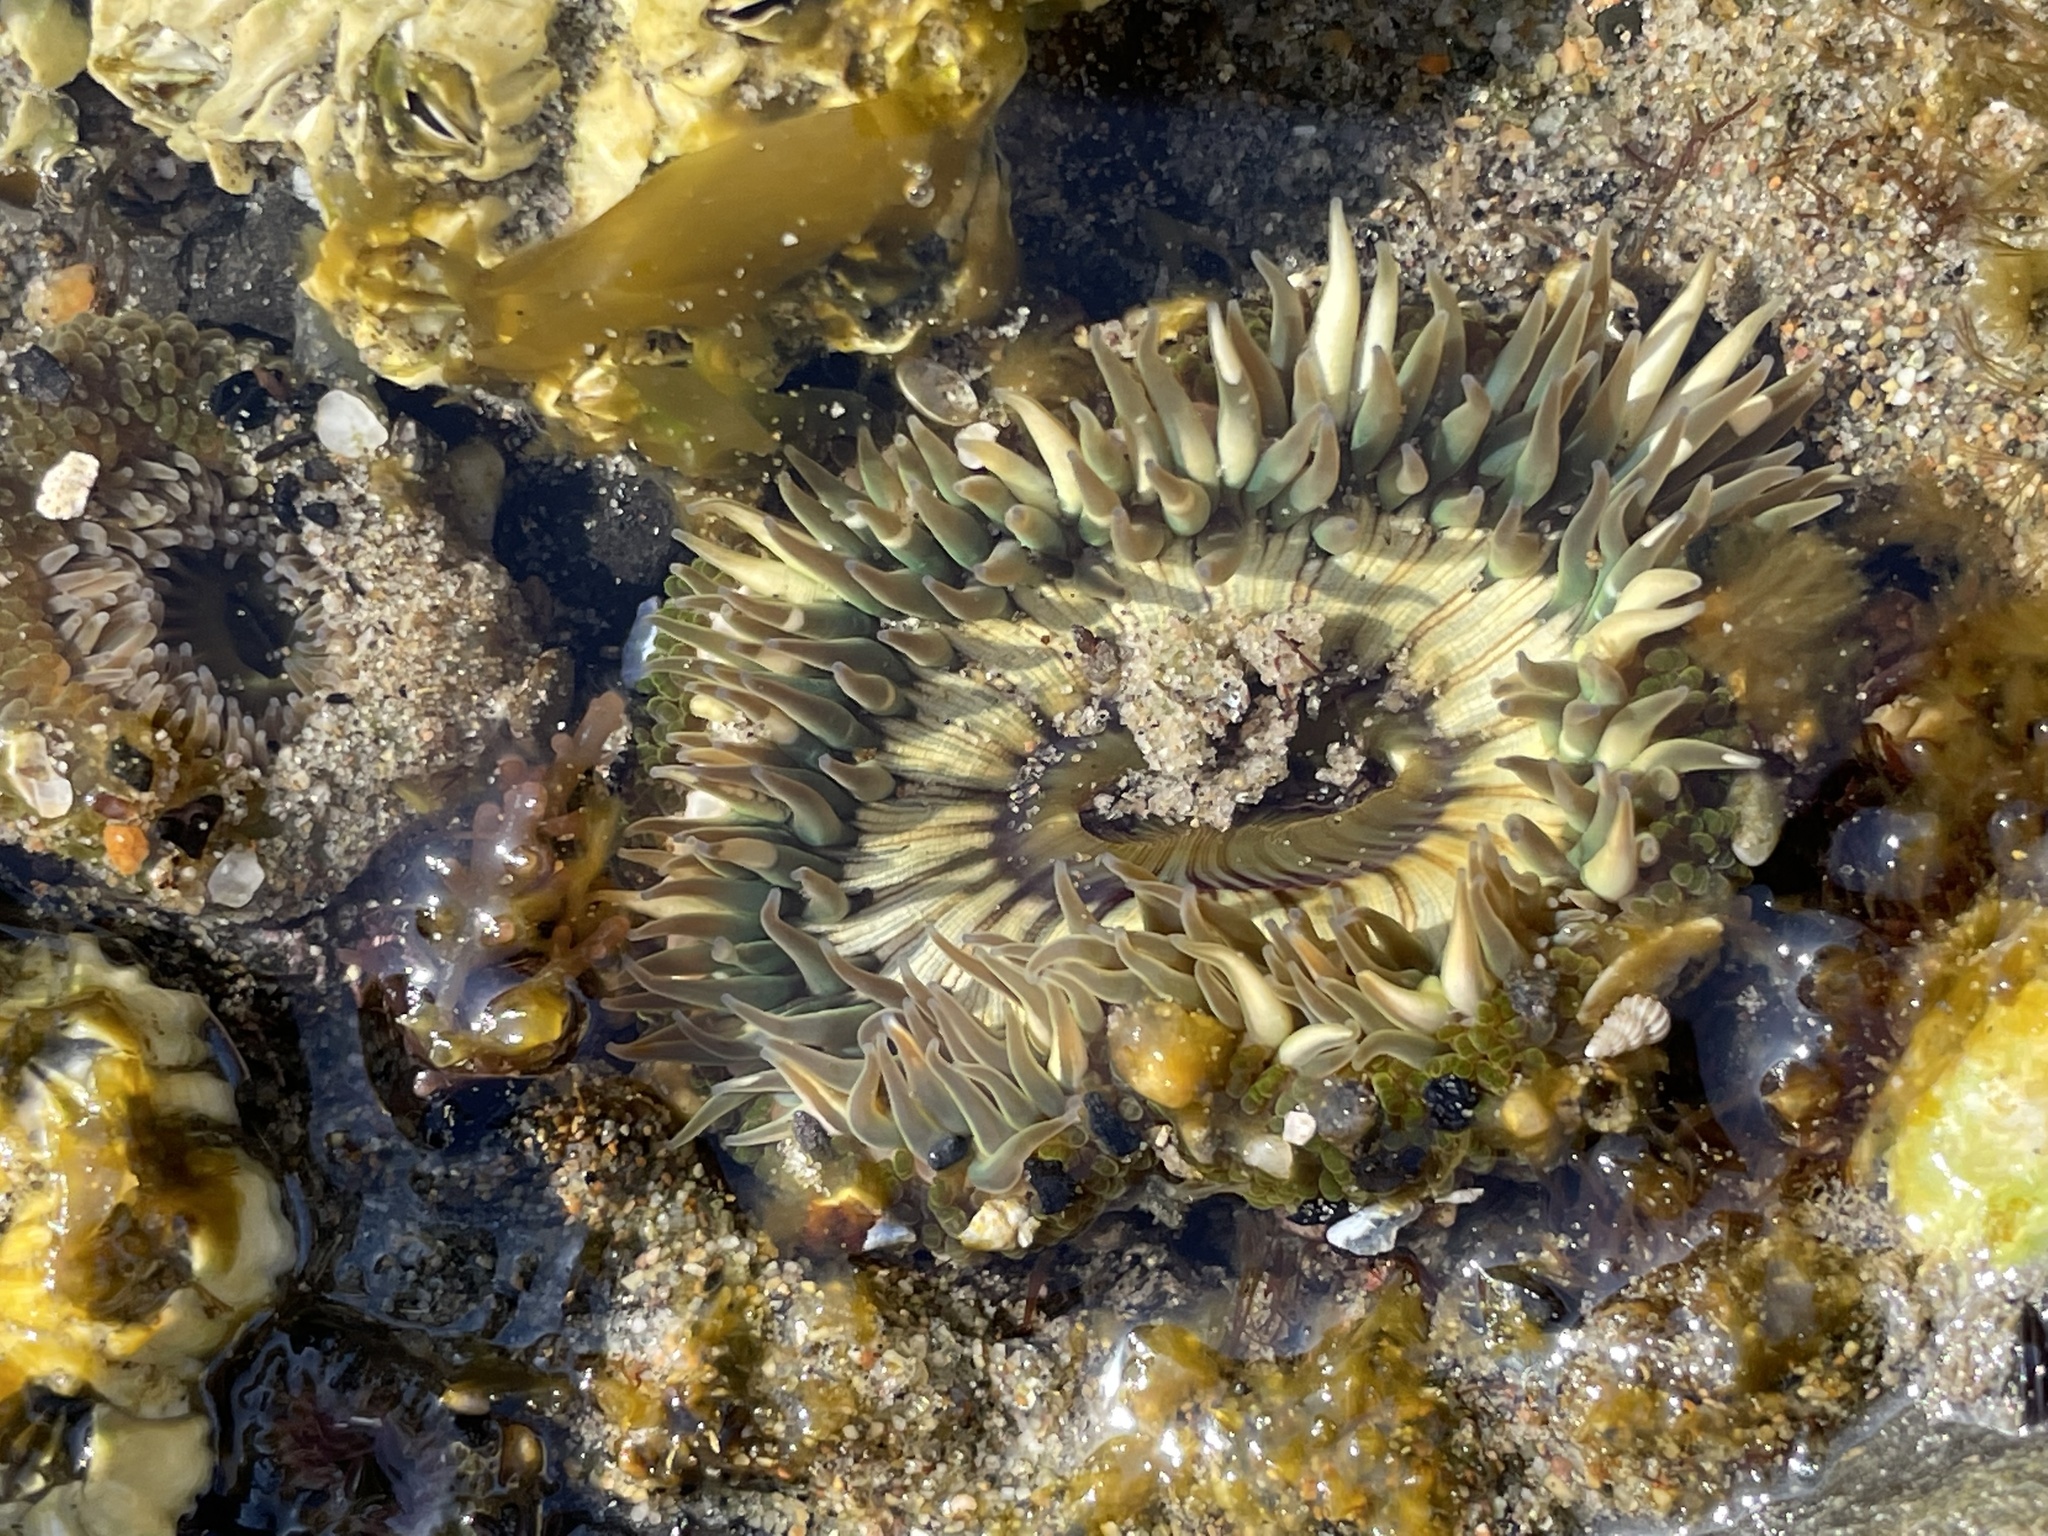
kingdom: Animalia
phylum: Cnidaria
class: Anthozoa
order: Actiniaria
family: Actiniidae
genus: Anthopleura
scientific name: Anthopleura sola
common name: Sun anemone
